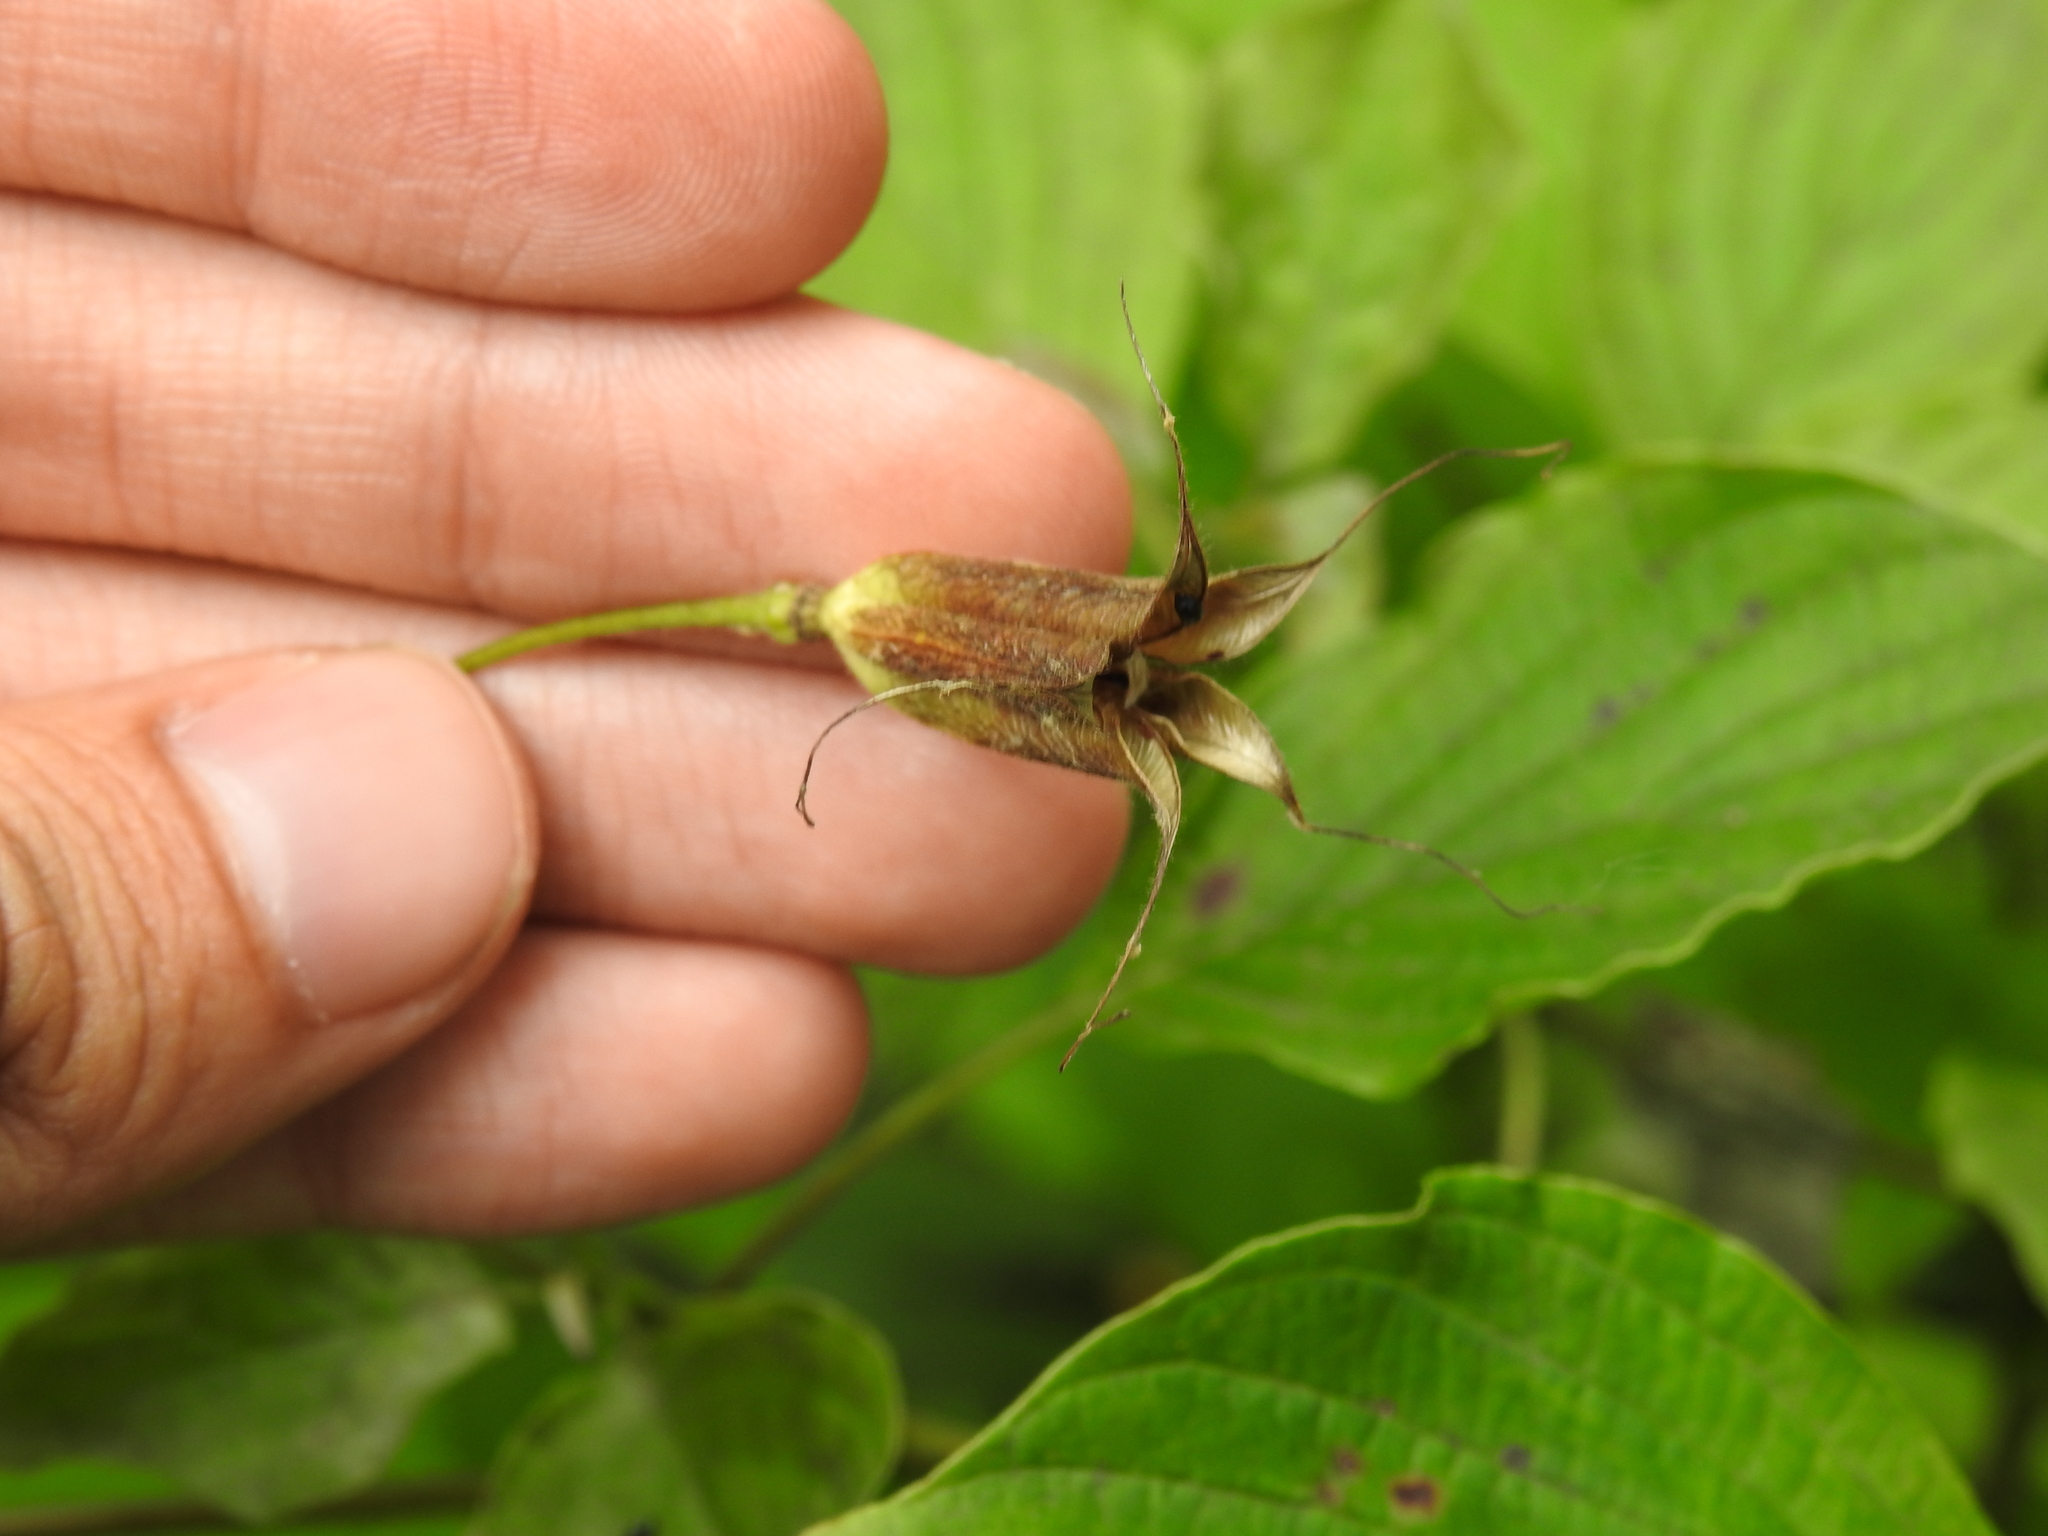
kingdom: Plantae
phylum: Tracheophyta
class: Magnoliopsida
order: Ranunculales
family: Ranunculaceae
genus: Aquilegia
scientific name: Aquilegia canadensis
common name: American columbine
